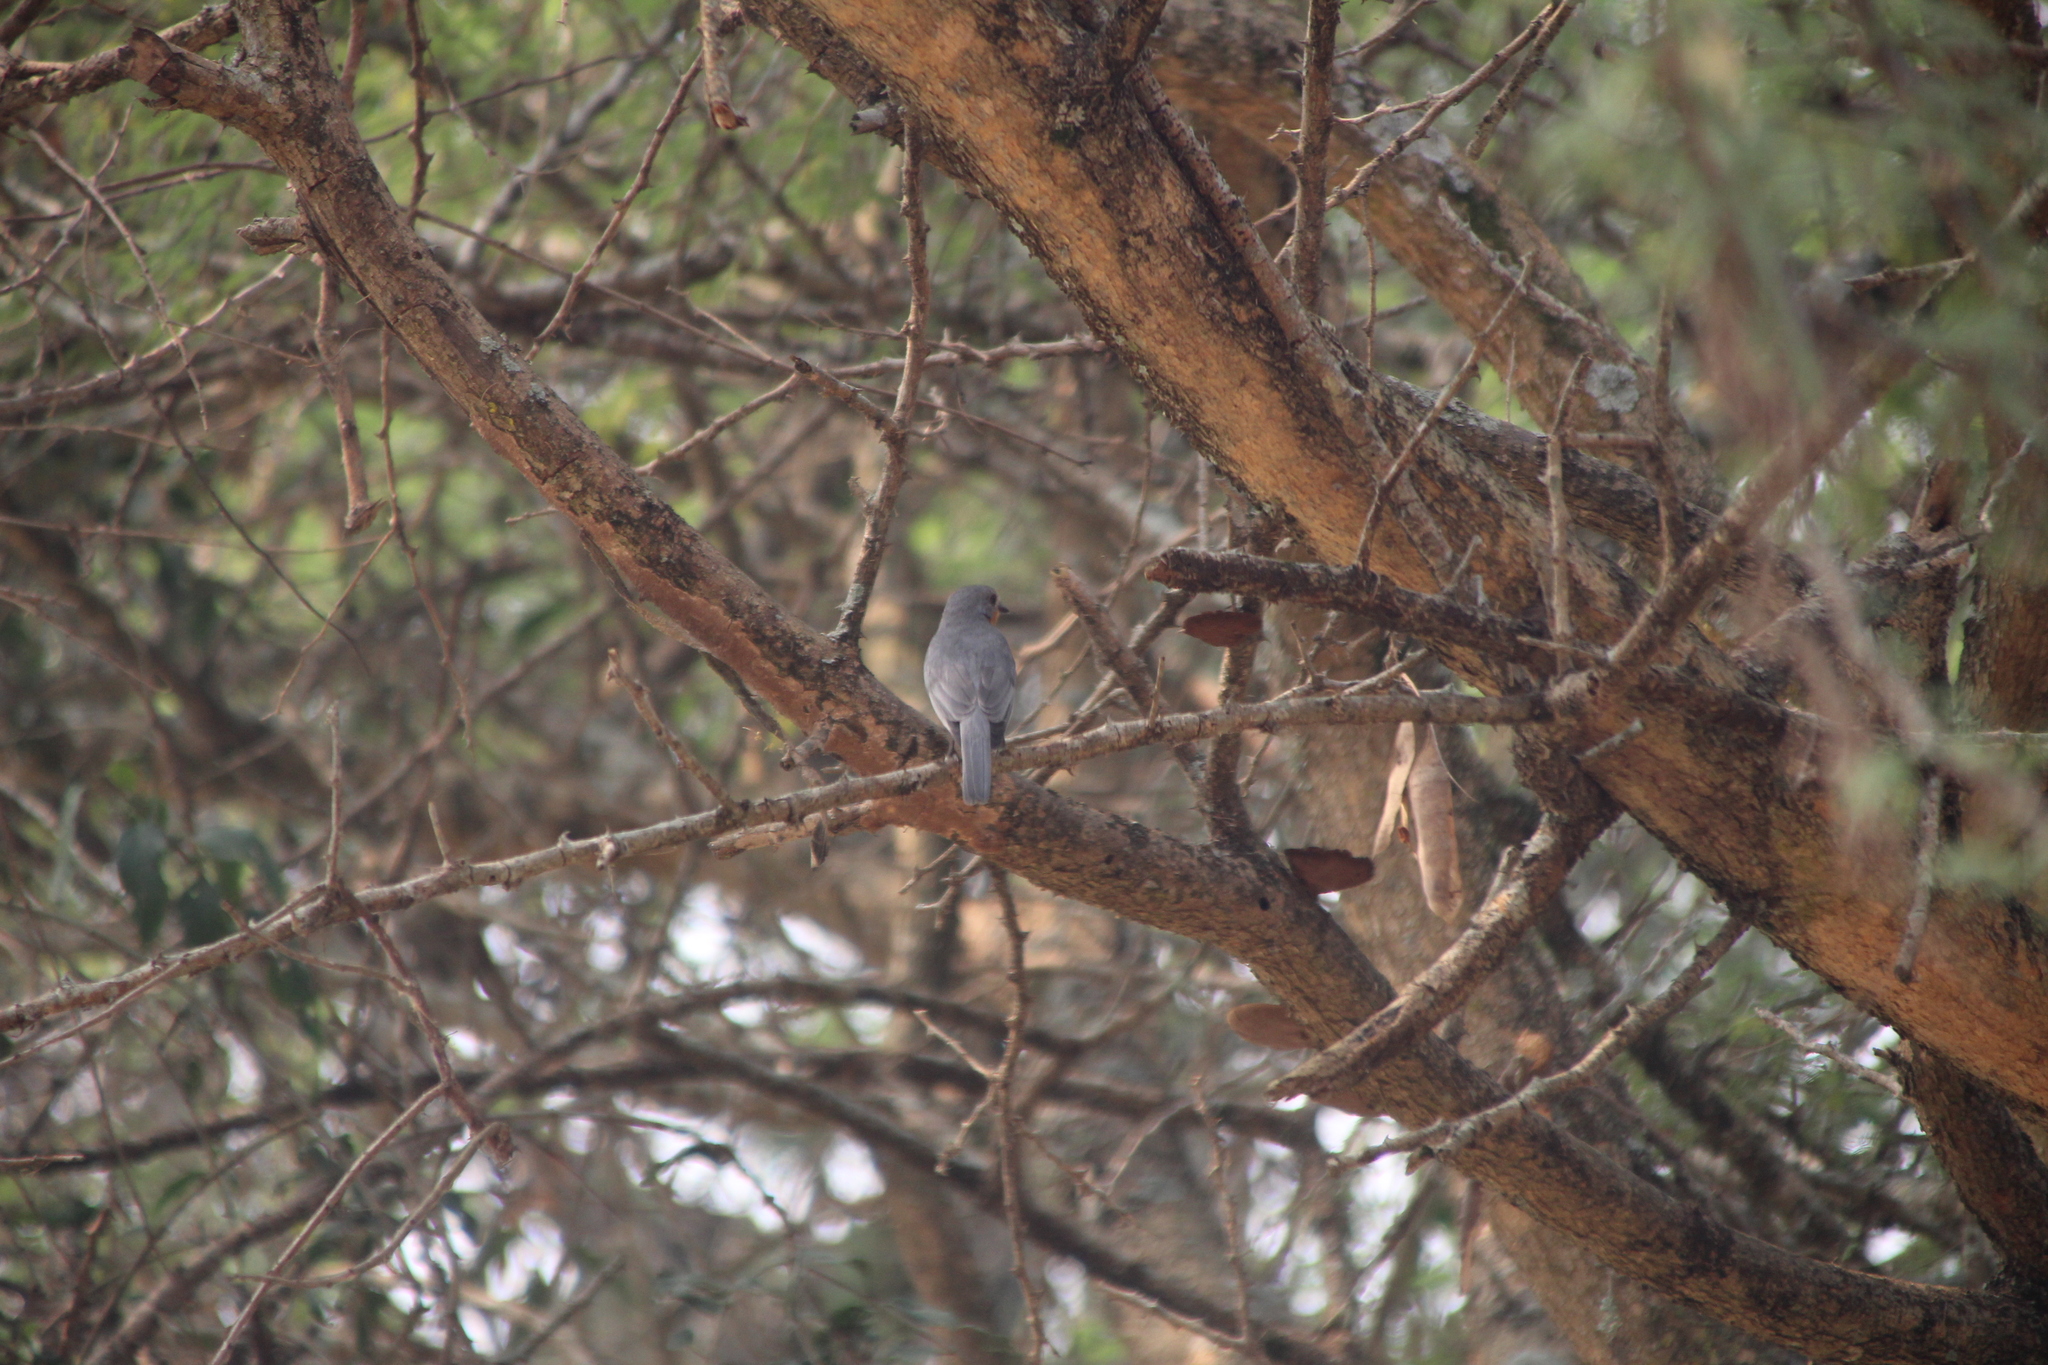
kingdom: Animalia
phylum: Chordata
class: Aves
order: Passeriformes
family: Muscicapidae
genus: Empidornis
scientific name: Empidornis semipartitus
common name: Silverbird
